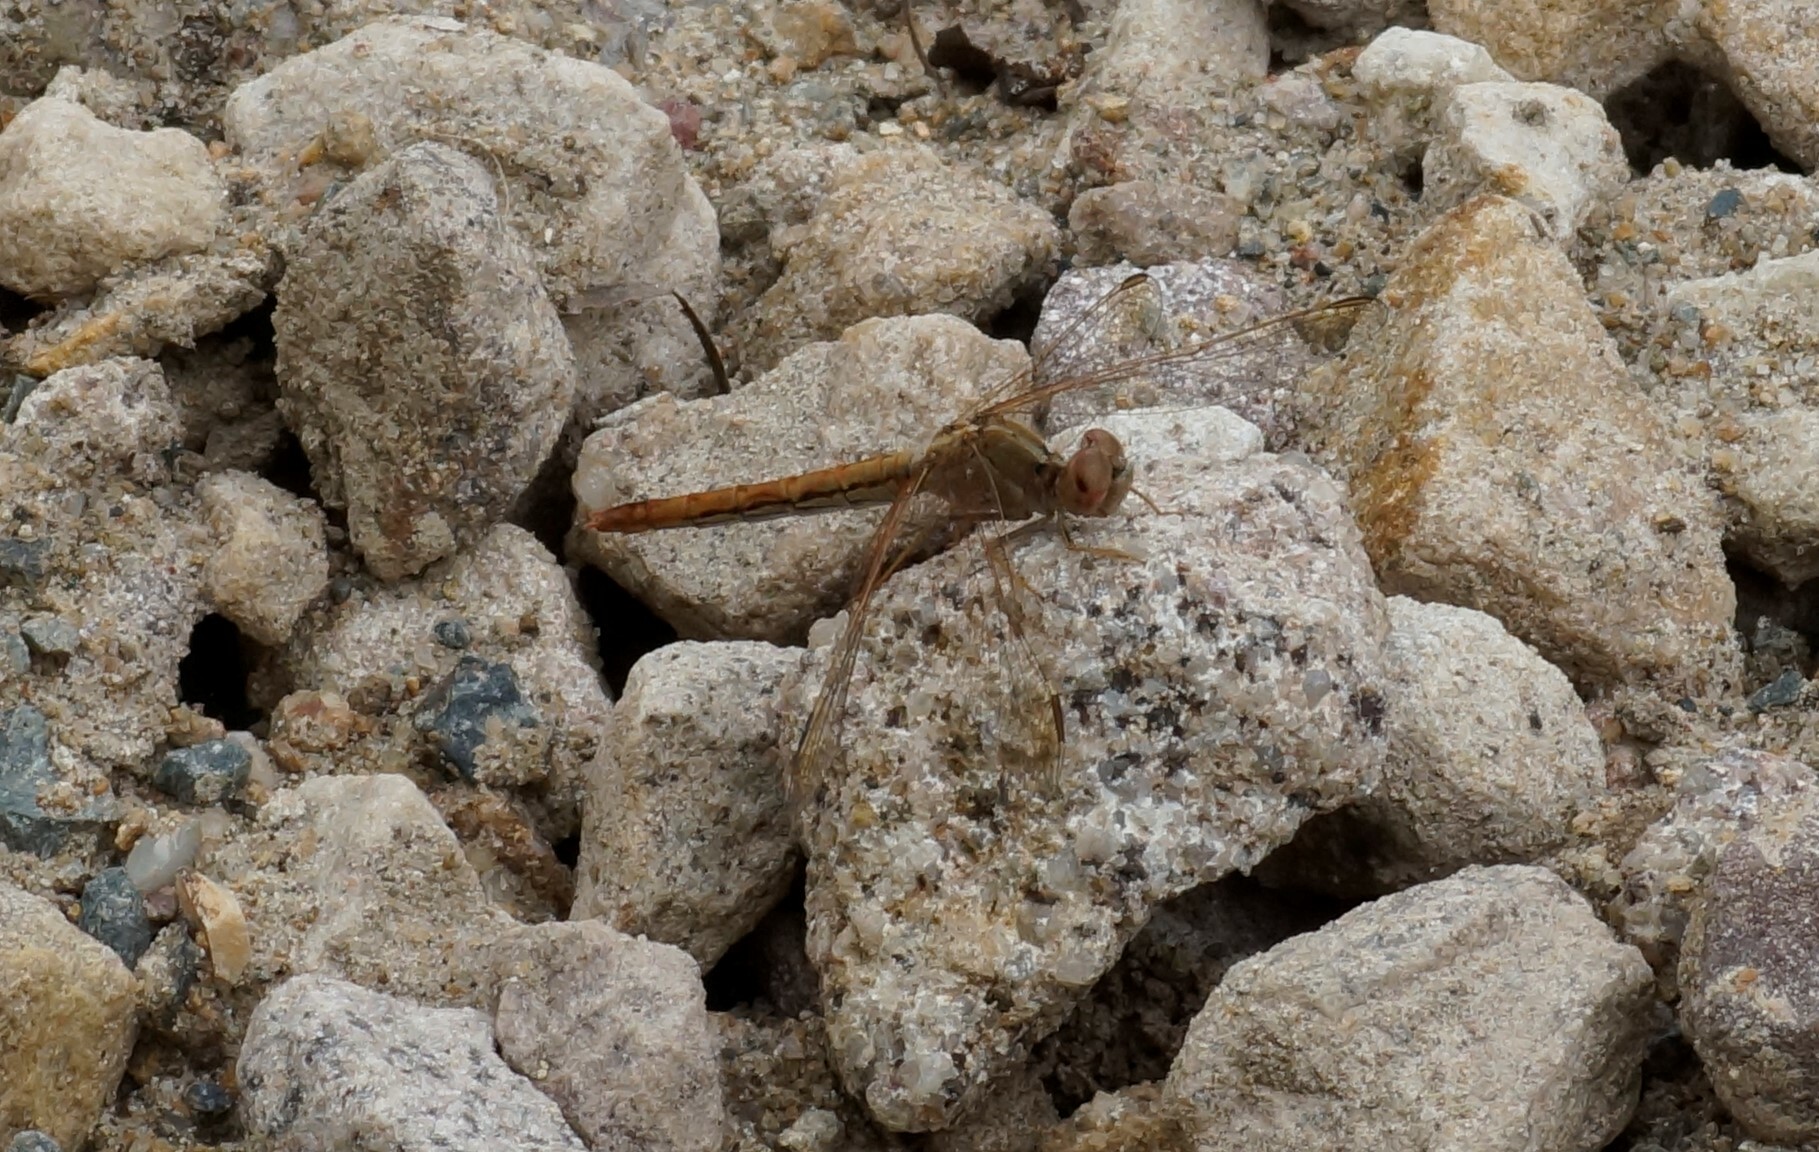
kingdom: Animalia
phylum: Arthropoda
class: Insecta
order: Odonata
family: Libellulidae
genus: Diplacodes
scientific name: Diplacodes haematodes
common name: Scarlet percher
